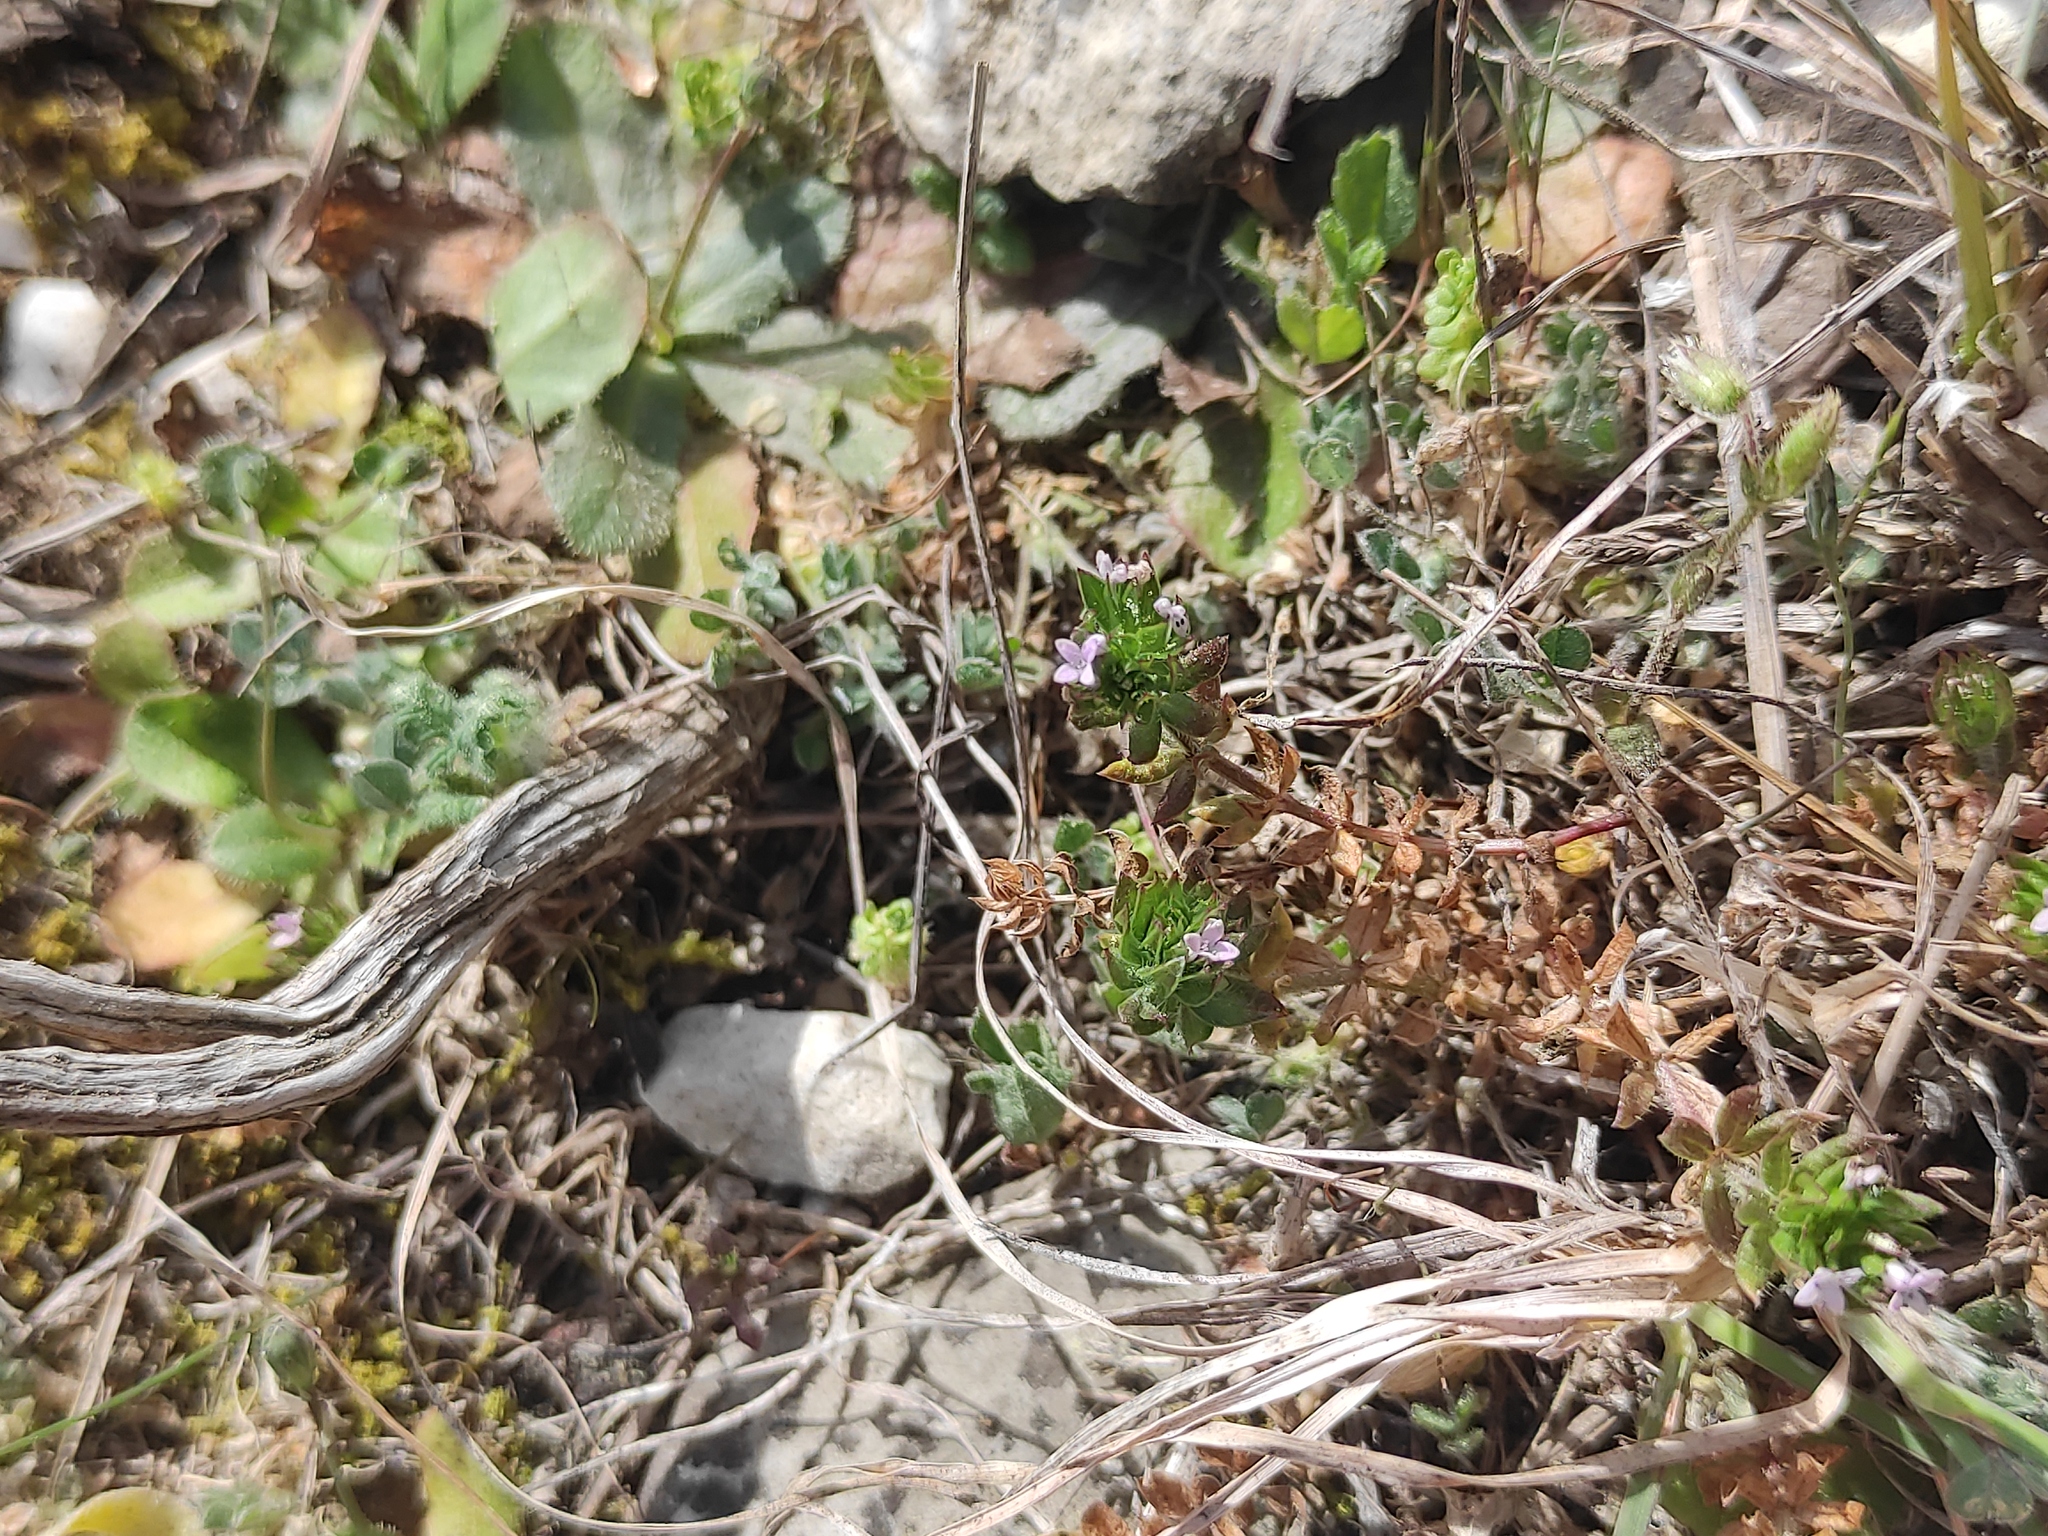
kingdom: Plantae
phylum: Tracheophyta
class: Magnoliopsida
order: Gentianales
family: Rubiaceae
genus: Sherardia
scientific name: Sherardia arvensis
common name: Field madder
